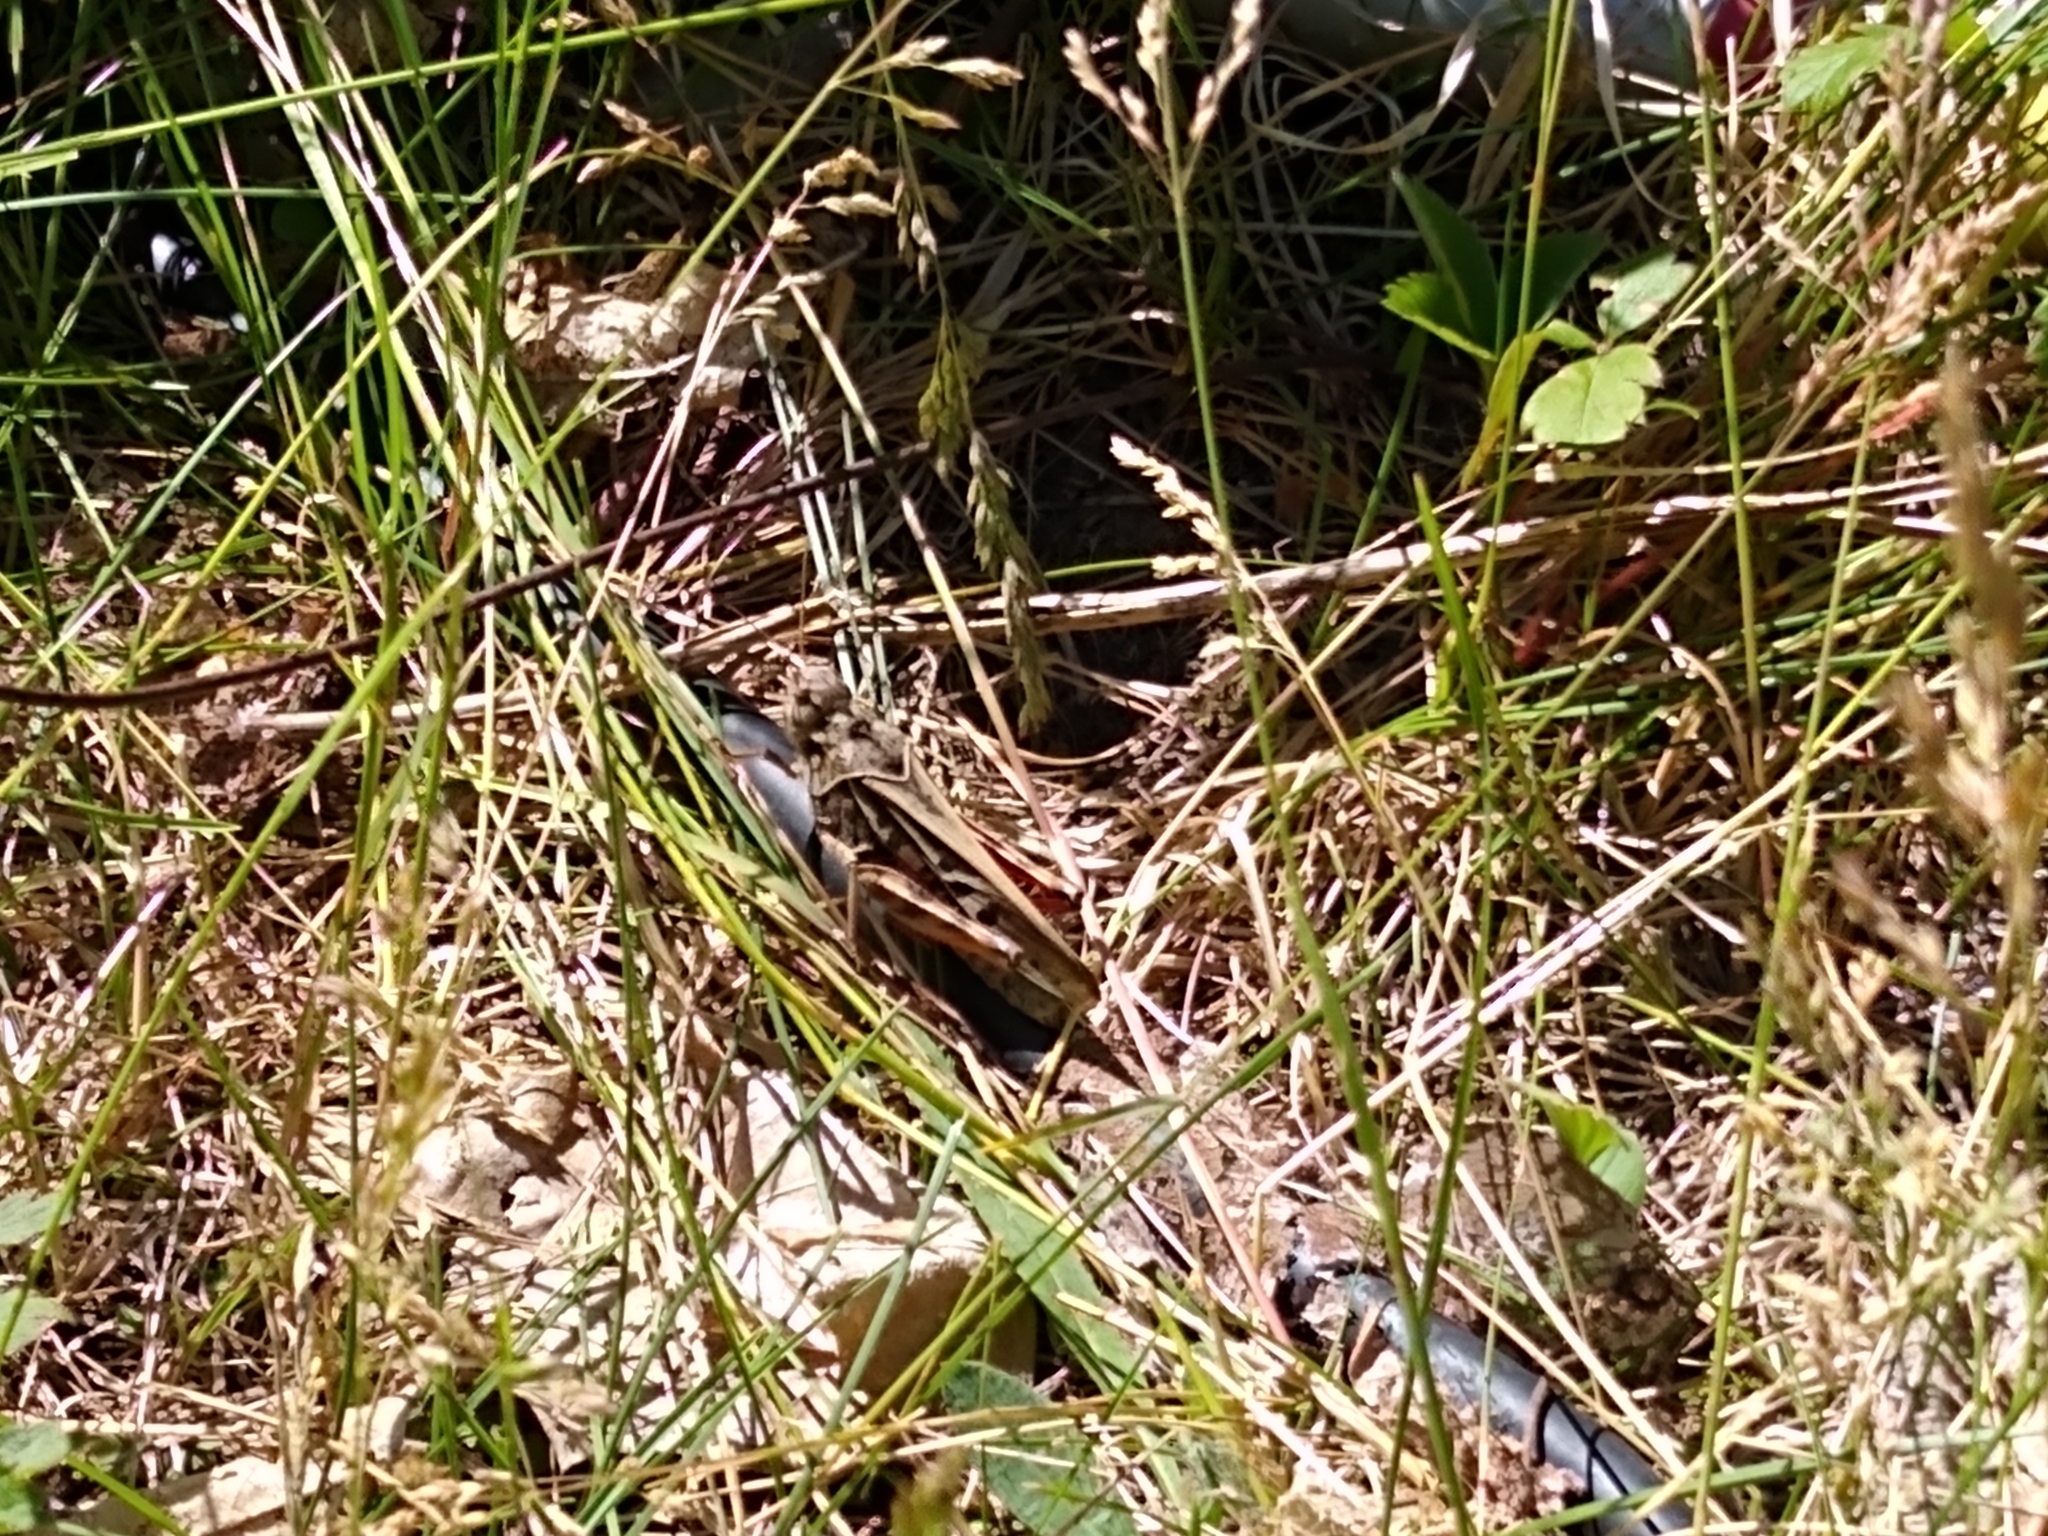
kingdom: Animalia
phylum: Arthropoda
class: Insecta
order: Orthoptera
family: Acrididae
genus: Pardalophora
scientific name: Pardalophora apiculata
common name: Coral-winged locust
